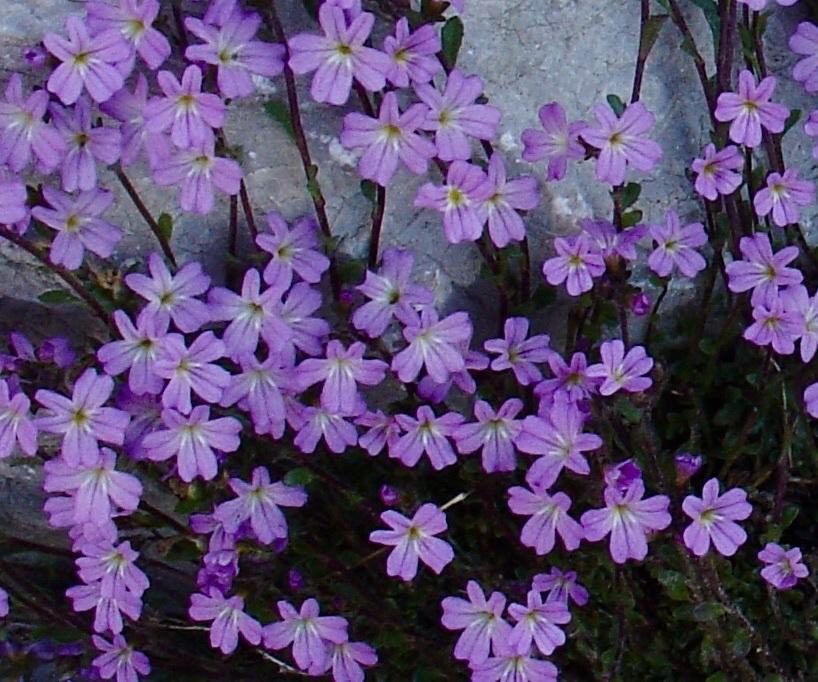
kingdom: Plantae
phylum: Tracheophyta
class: Magnoliopsida
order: Lamiales
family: Plantaginaceae
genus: Erinus
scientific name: Erinus alpinus
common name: Fairy foxglove
